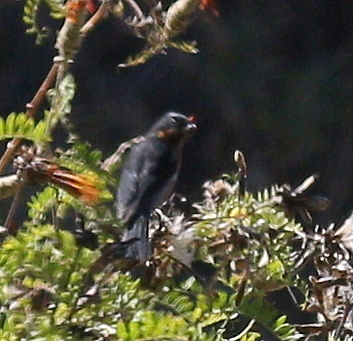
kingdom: Animalia
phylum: Chordata
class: Aves
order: Passeriformes
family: Thraupidae
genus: Diglossa
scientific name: Diglossa brunneiventris
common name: Black-throated flowerpiercer
